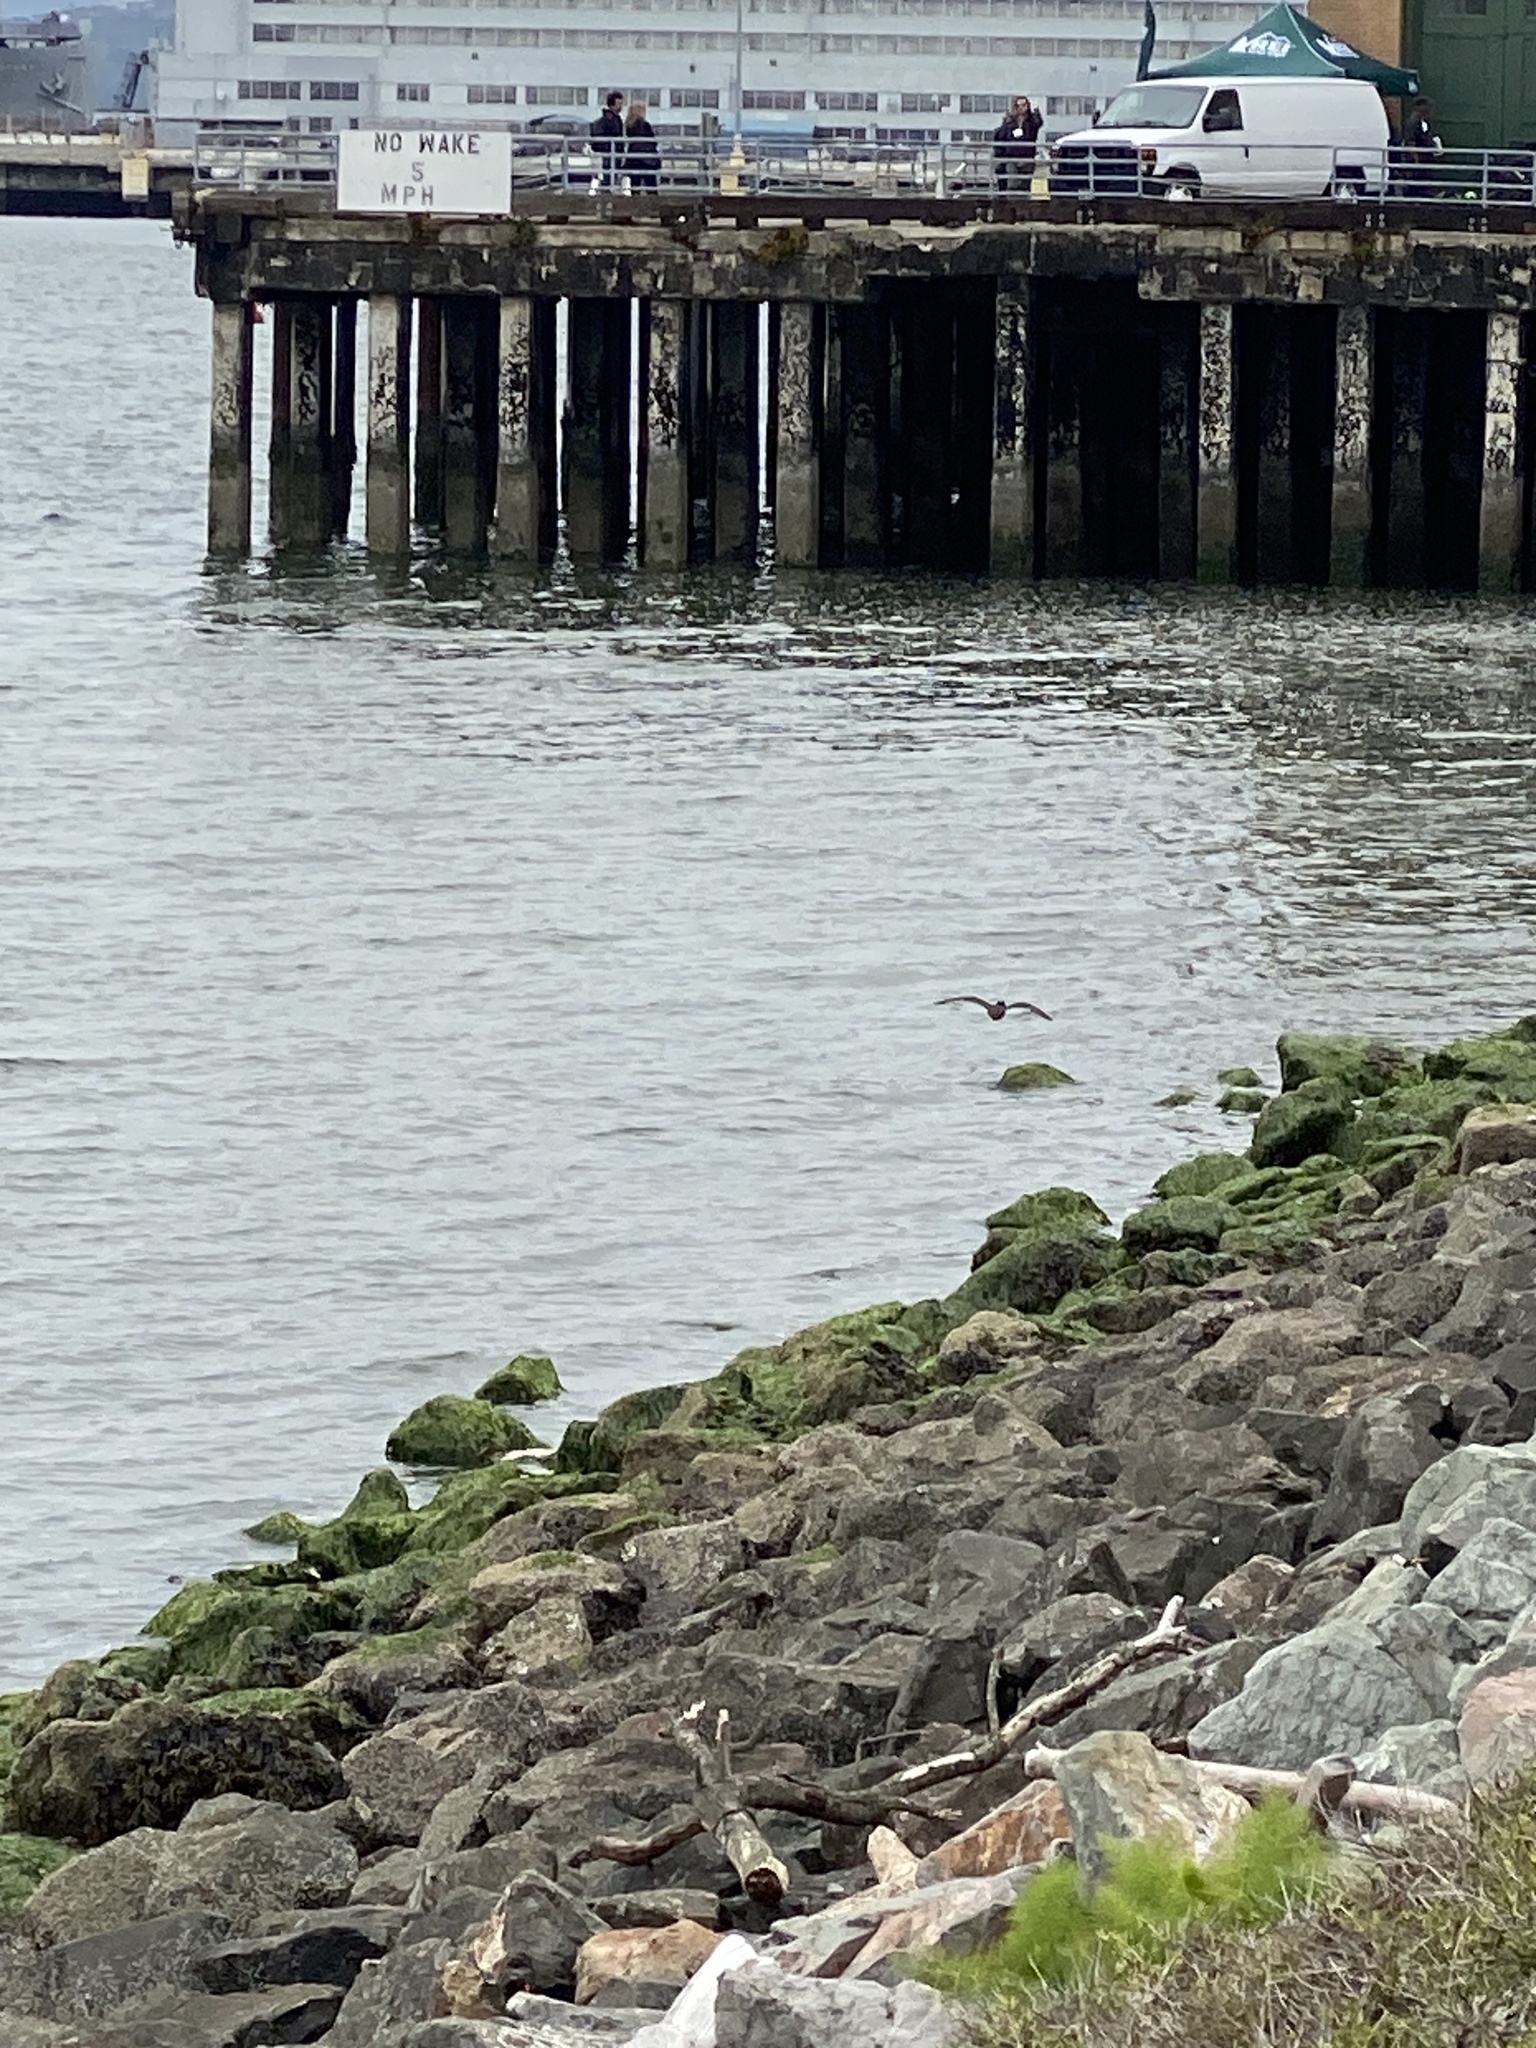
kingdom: Animalia
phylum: Chordata
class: Aves
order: Charadriiformes
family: Haematopodidae
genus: Haematopus
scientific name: Haematopus bachmani
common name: Black oystercatcher
